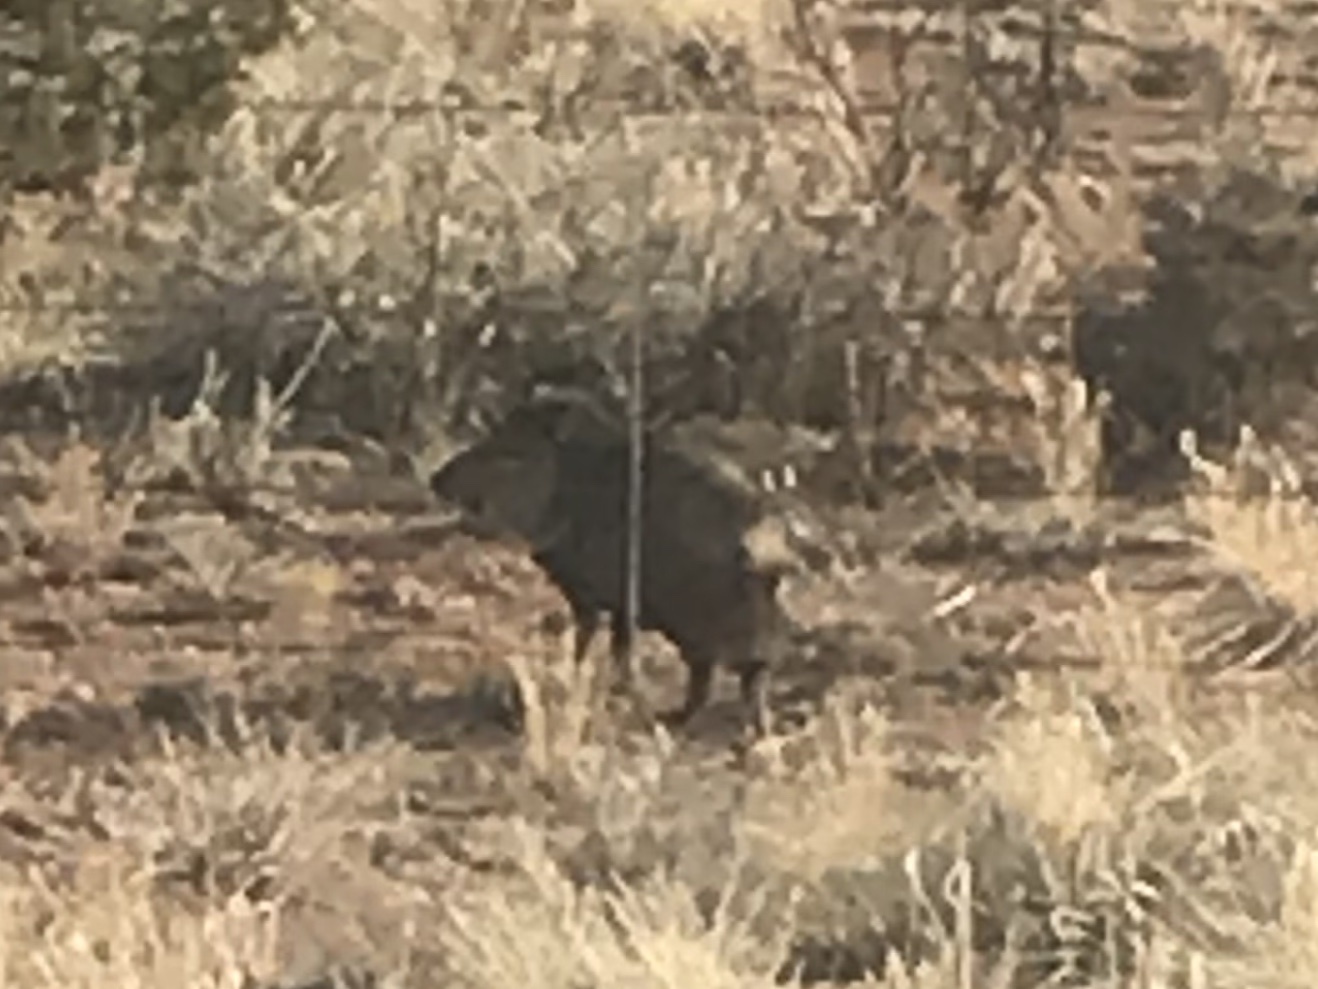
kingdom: Animalia
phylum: Chordata
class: Mammalia
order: Artiodactyla
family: Tayassuidae
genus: Pecari
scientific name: Pecari tajacu
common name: Collared peccary
